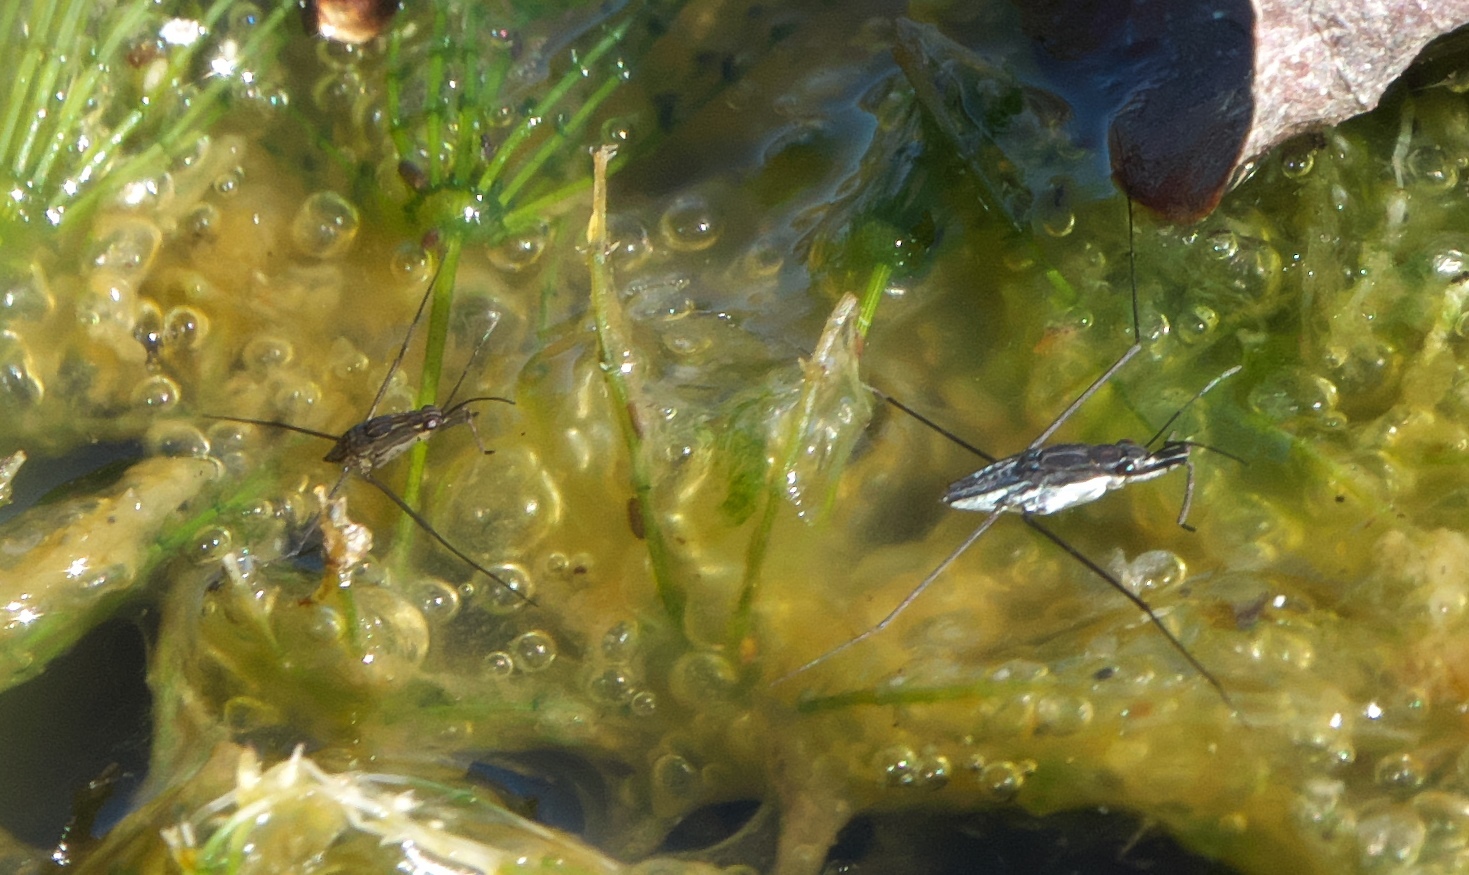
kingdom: Animalia
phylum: Arthropoda
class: Insecta
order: Hemiptera
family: Gerridae
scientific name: Gerridae
